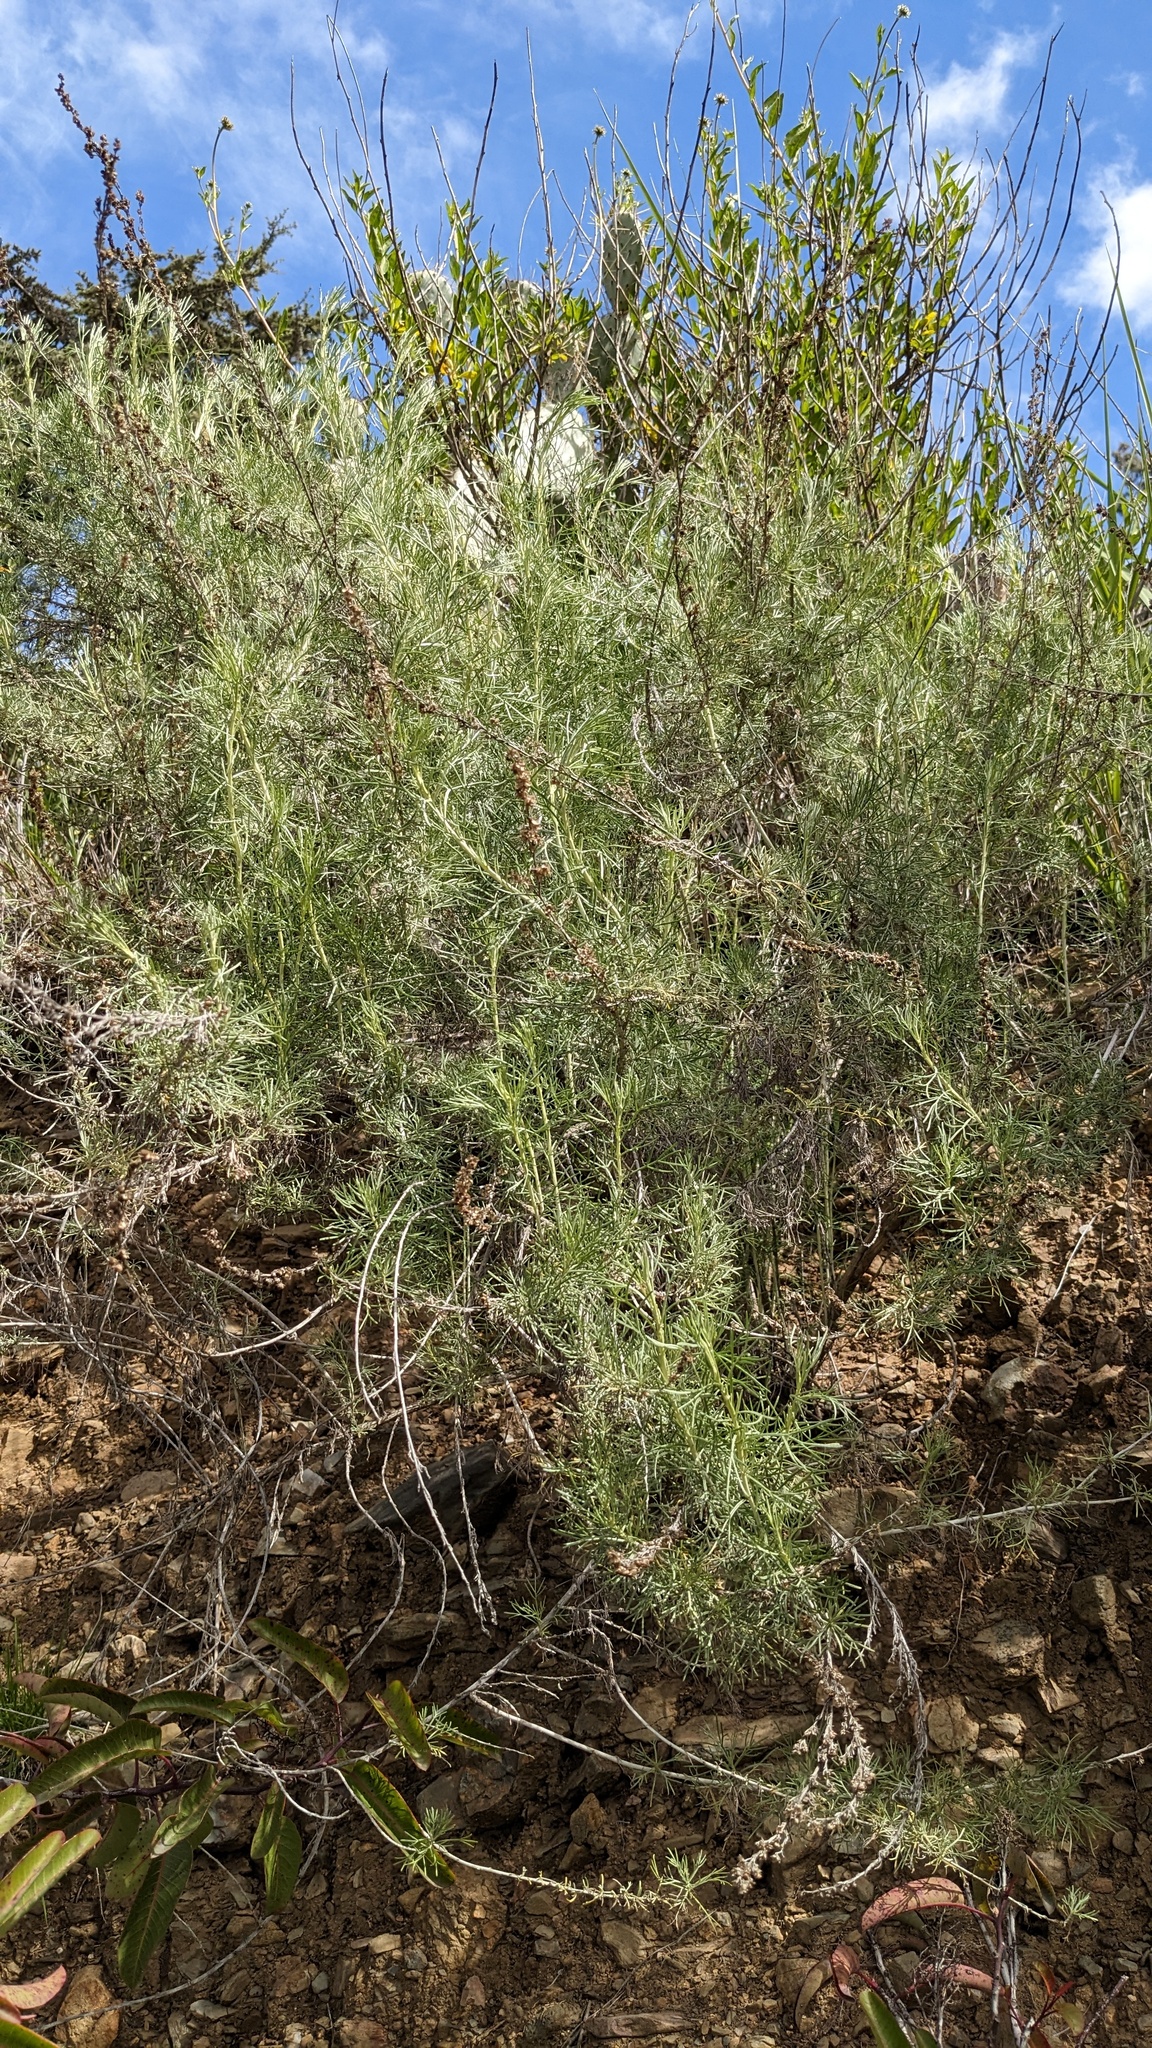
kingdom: Plantae
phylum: Tracheophyta
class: Magnoliopsida
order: Asterales
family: Asteraceae
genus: Artemisia
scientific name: Artemisia californica
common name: California sagebrush
